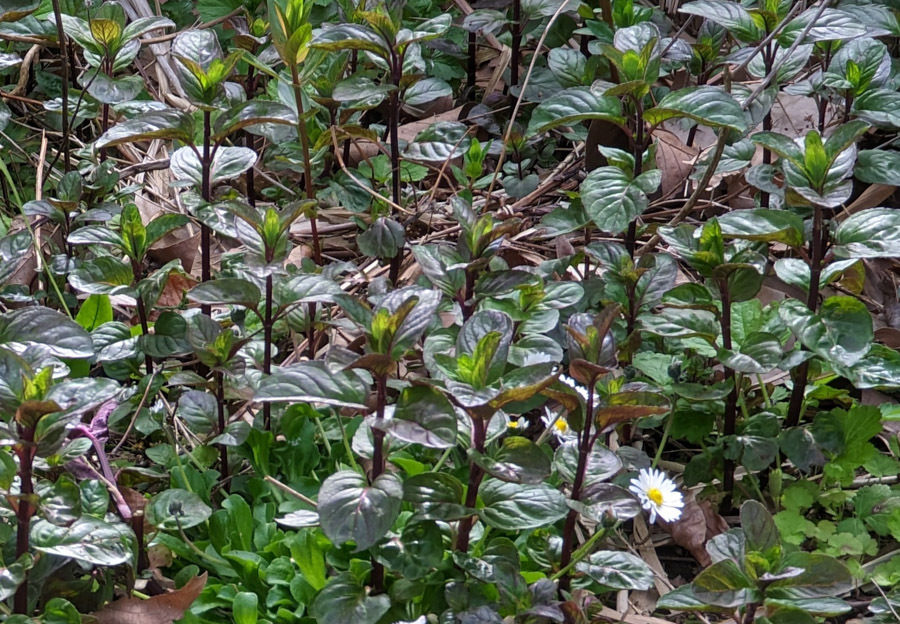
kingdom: Plantae
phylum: Tracheophyta
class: Magnoliopsida
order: Lamiales
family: Lamiaceae
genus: Mentha
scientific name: Mentha aquatica
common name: Water mint
